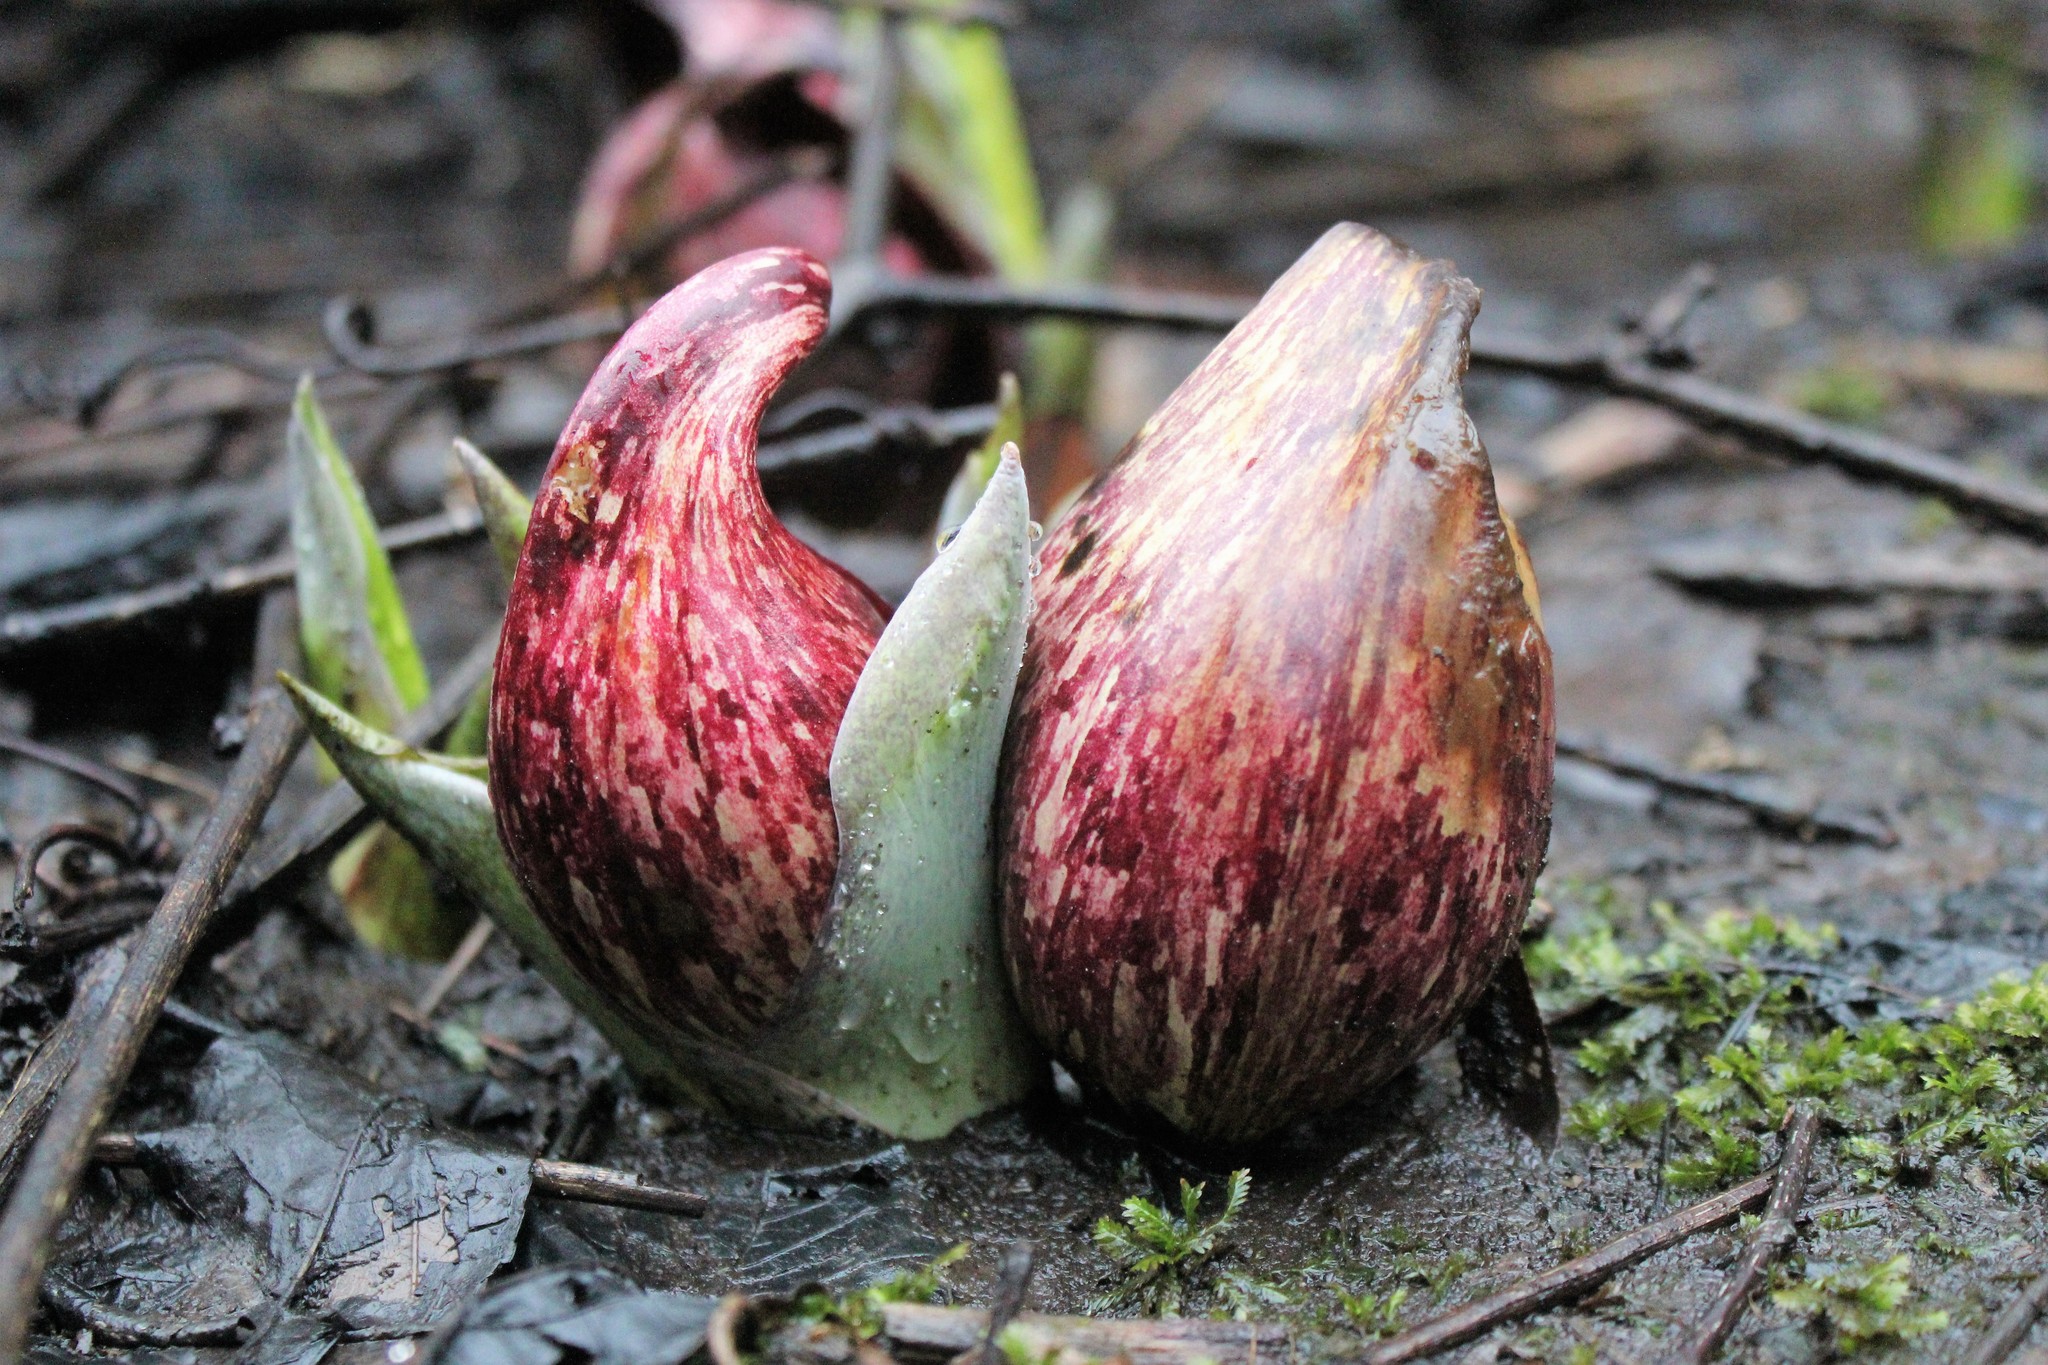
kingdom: Plantae
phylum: Tracheophyta
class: Liliopsida
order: Alismatales
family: Araceae
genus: Symplocarpus
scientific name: Symplocarpus foetidus
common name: Eastern skunk cabbage
